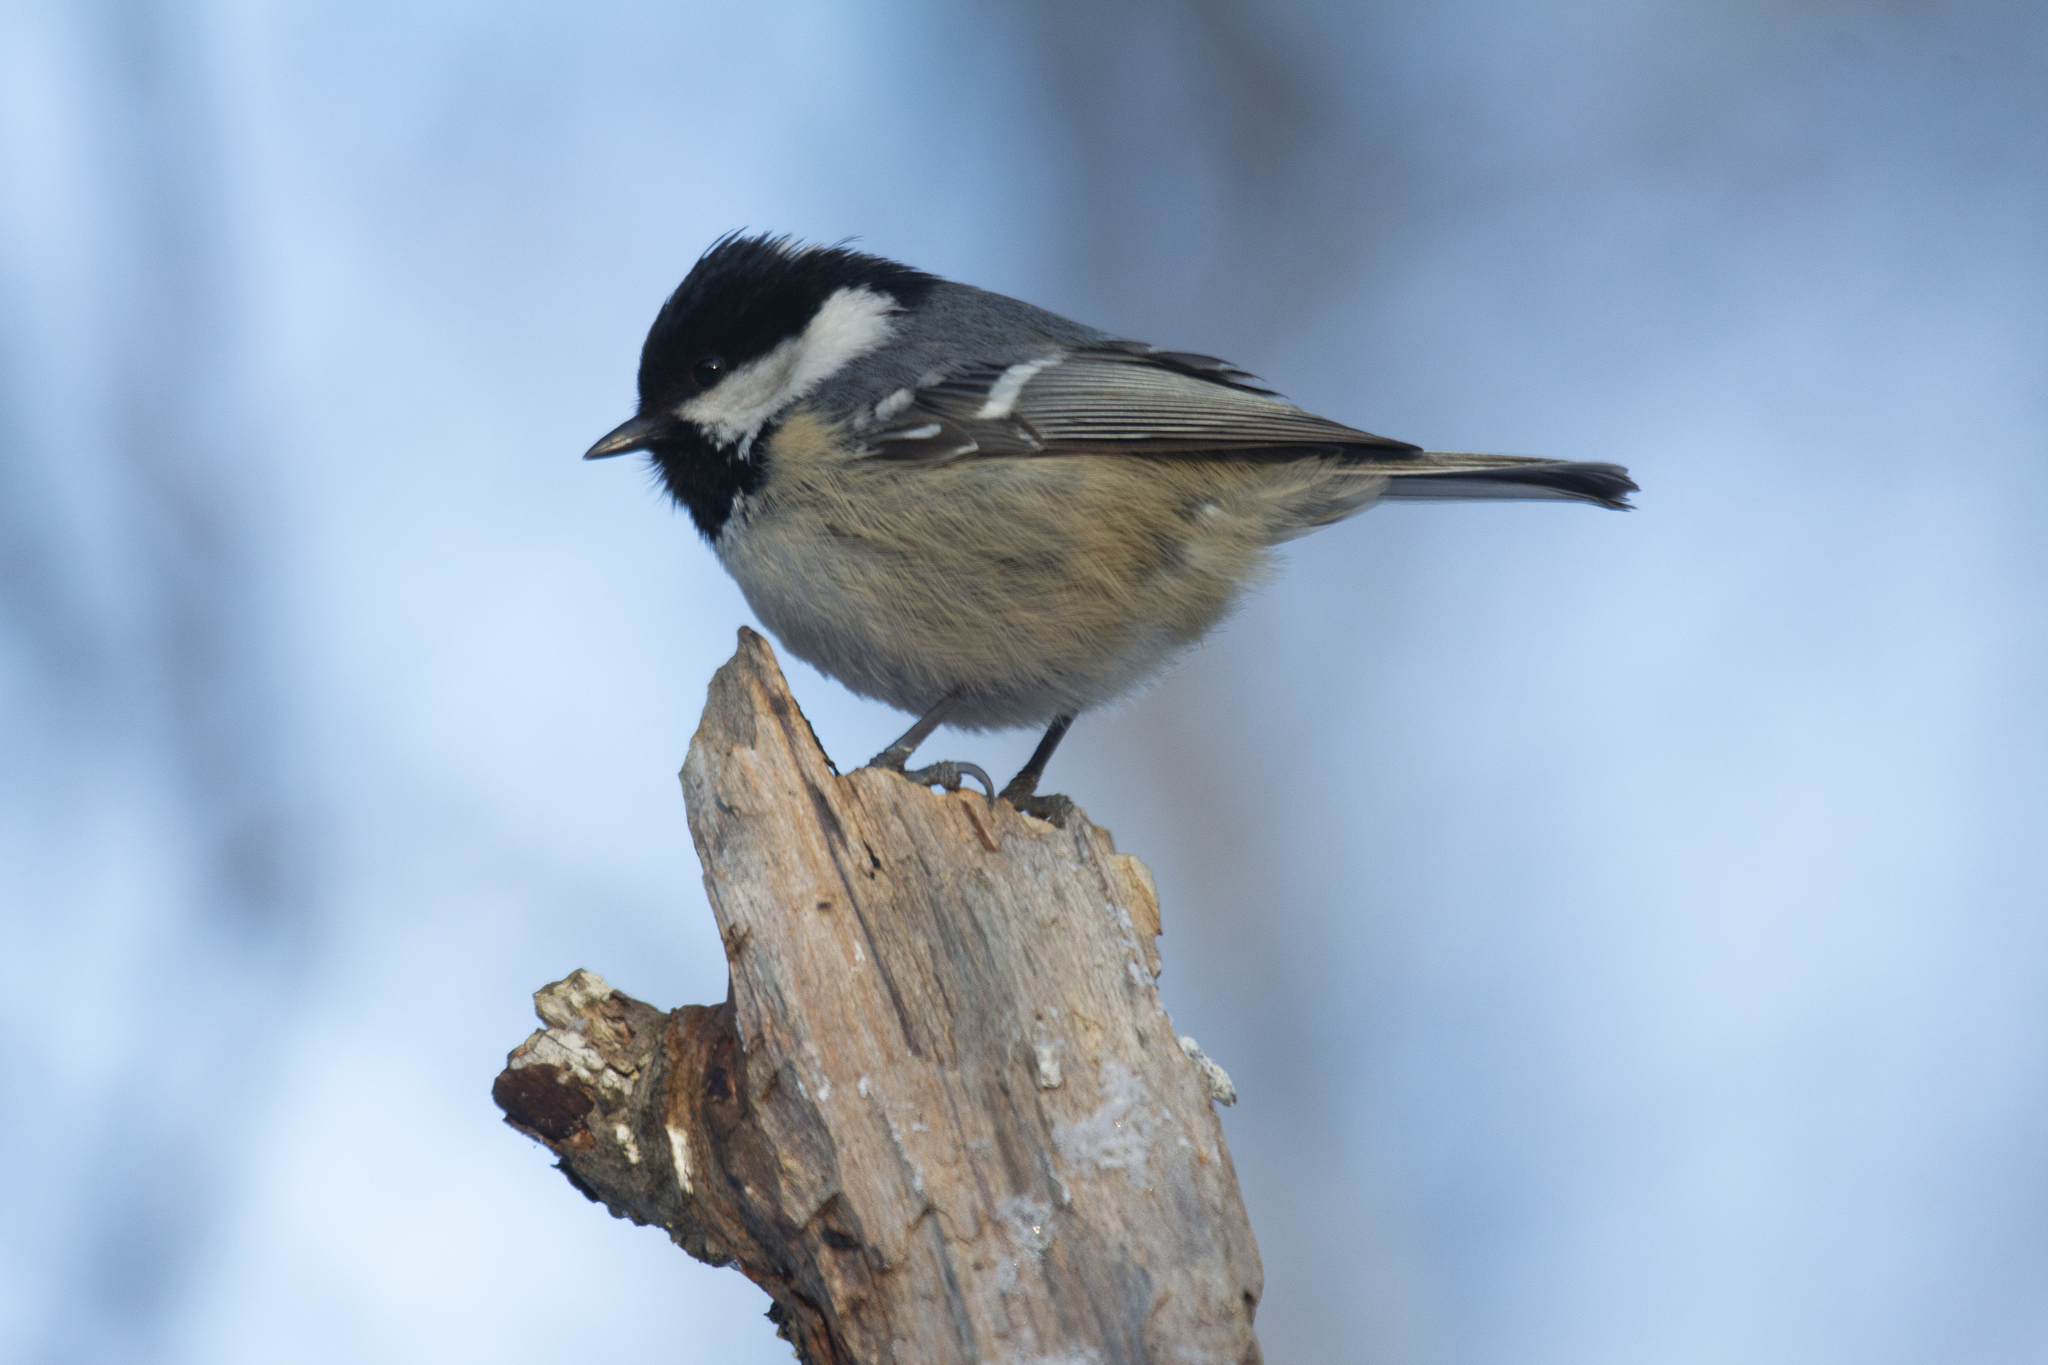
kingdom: Animalia
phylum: Chordata
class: Aves
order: Passeriformes
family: Paridae
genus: Periparus
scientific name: Periparus ater
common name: Coal tit
